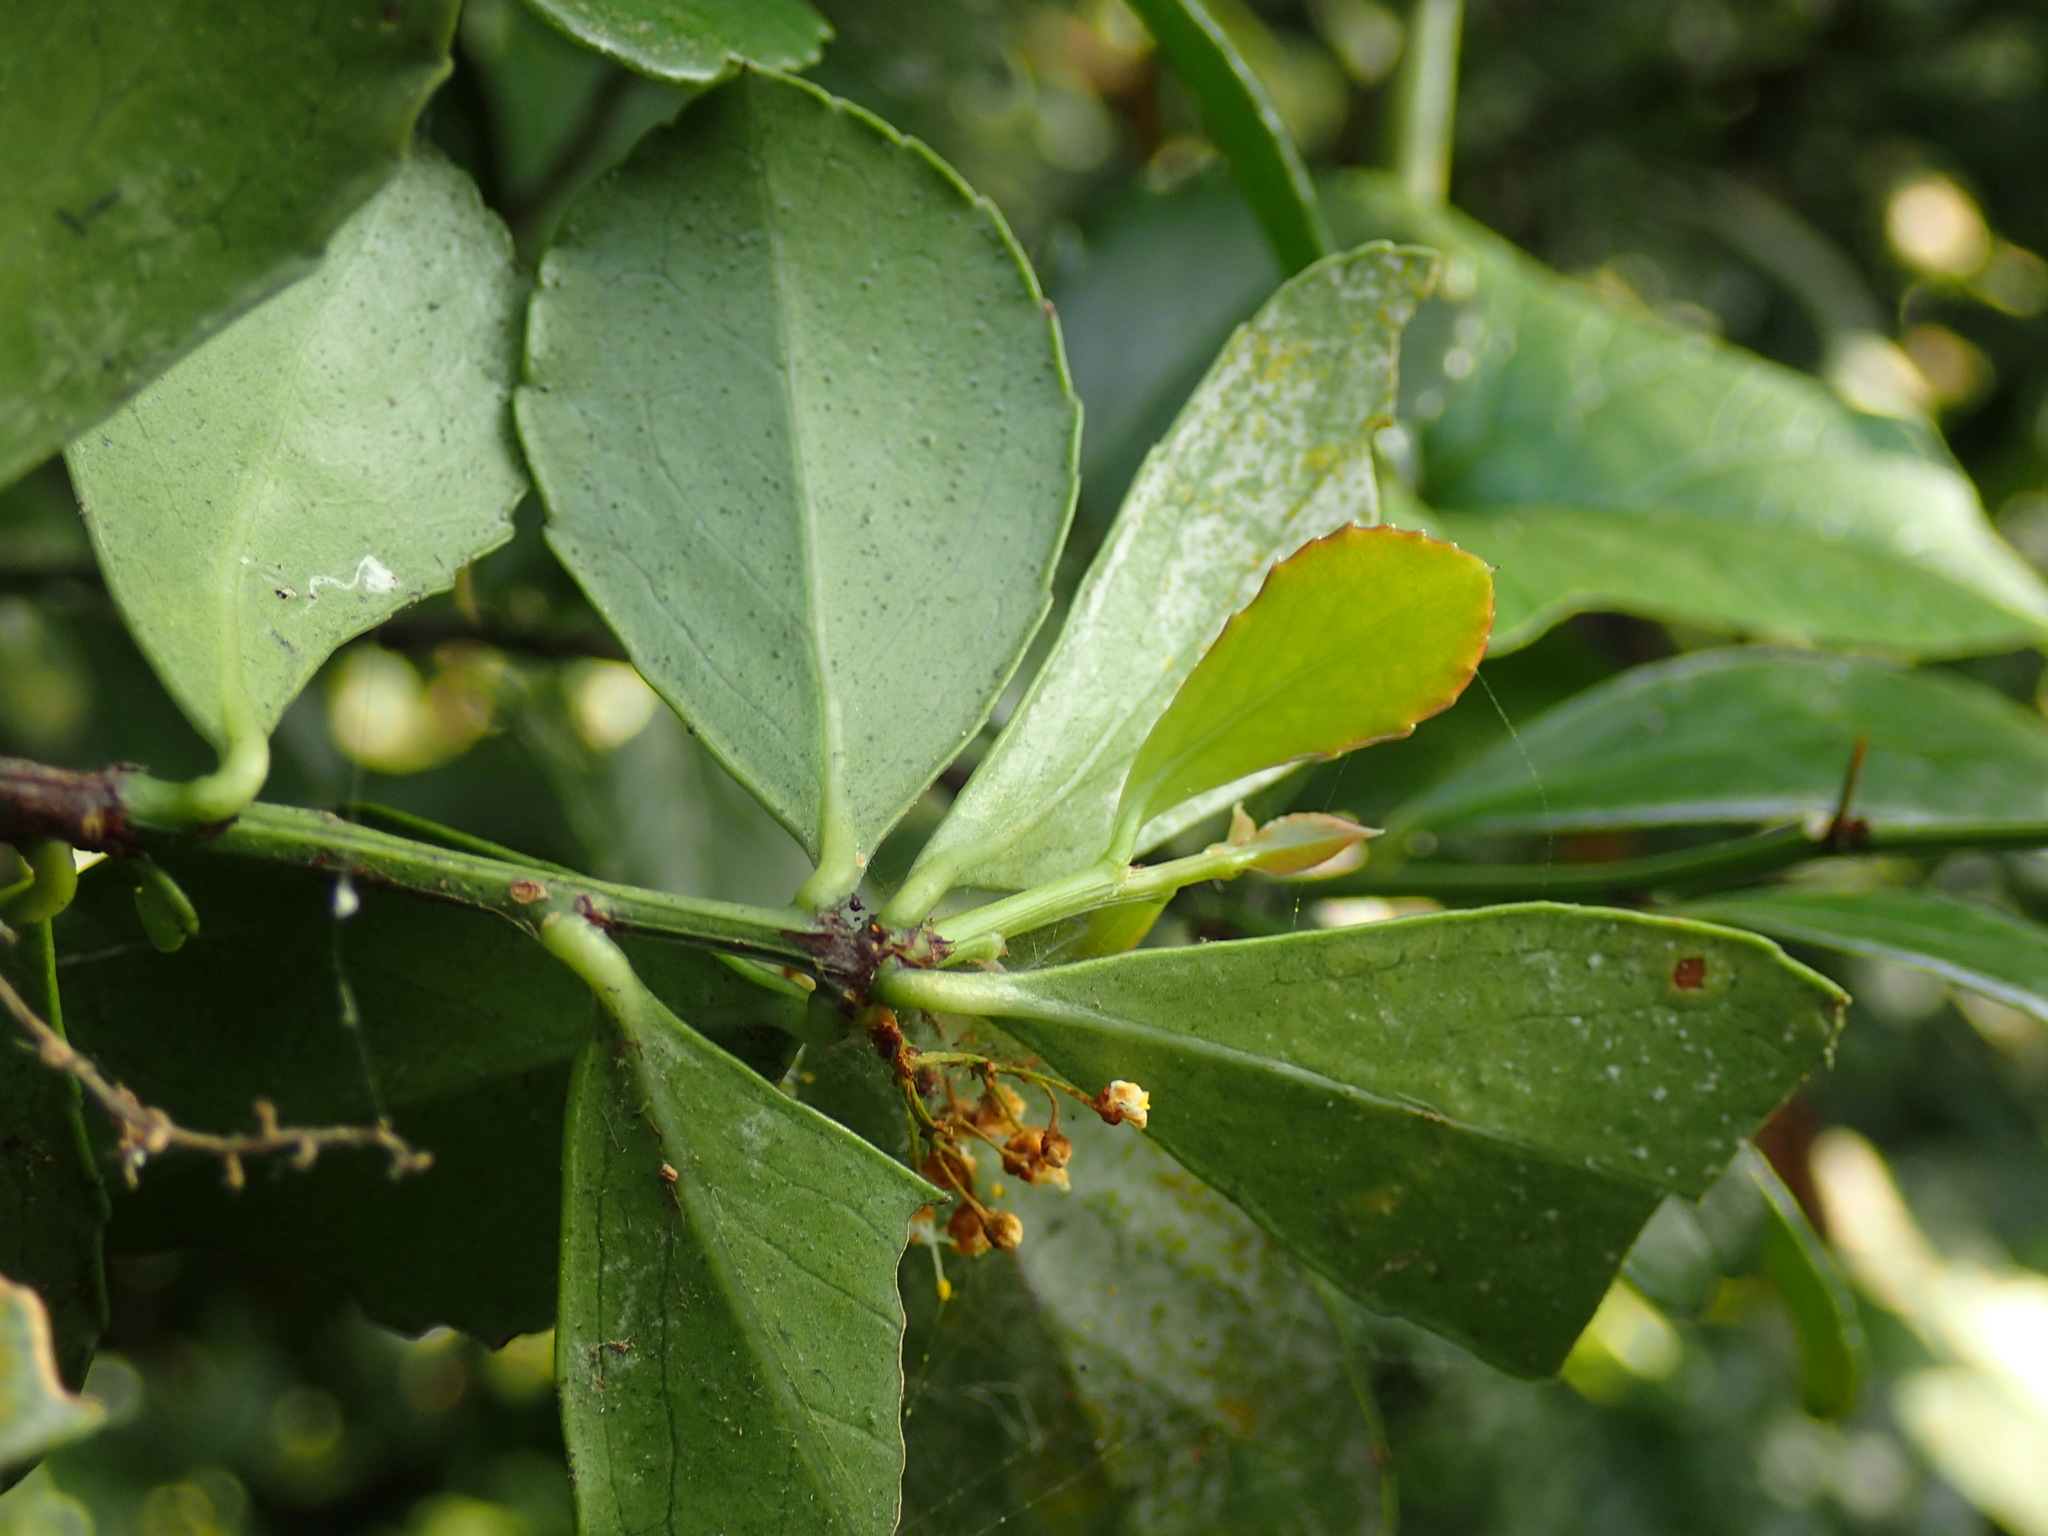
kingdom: Plantae
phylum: Tracheophyta
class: Magnoliopsida
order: Celastrales
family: Celastraceae
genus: Gymnosporia
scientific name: Gymnosporia nemorosa
